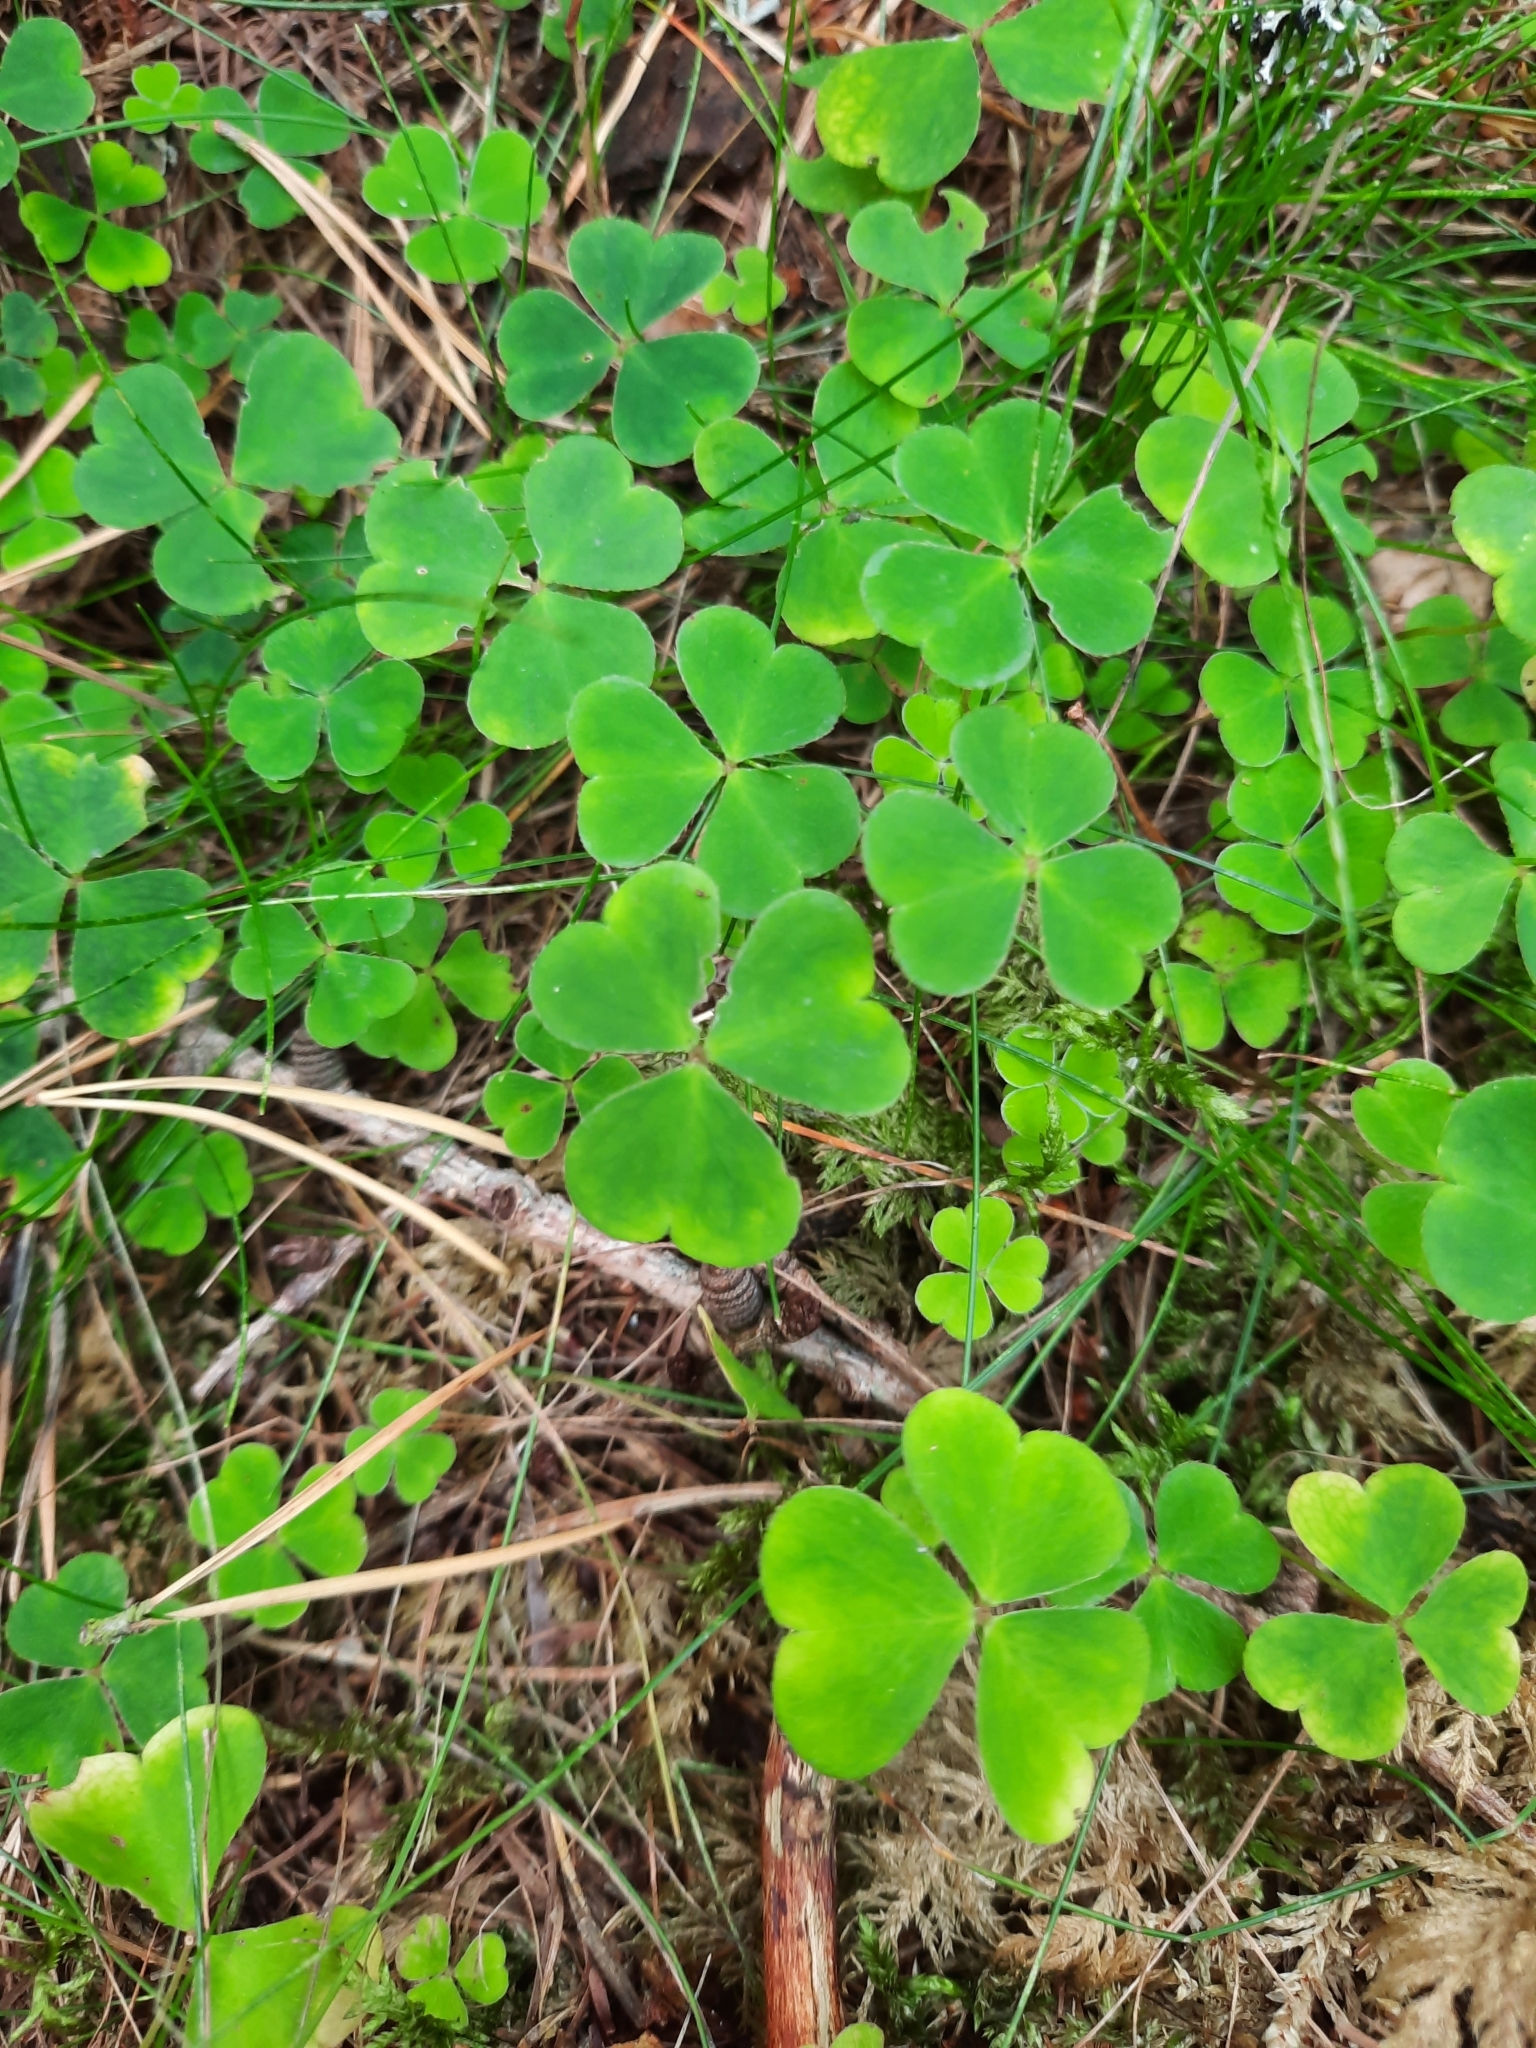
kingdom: Plantae
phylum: Tracheophyta
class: Magnoliopsida
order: Oxalidales
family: Oxalidaceae
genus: Oxalis
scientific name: Oxalis acetosella
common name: Wood-sorrel
